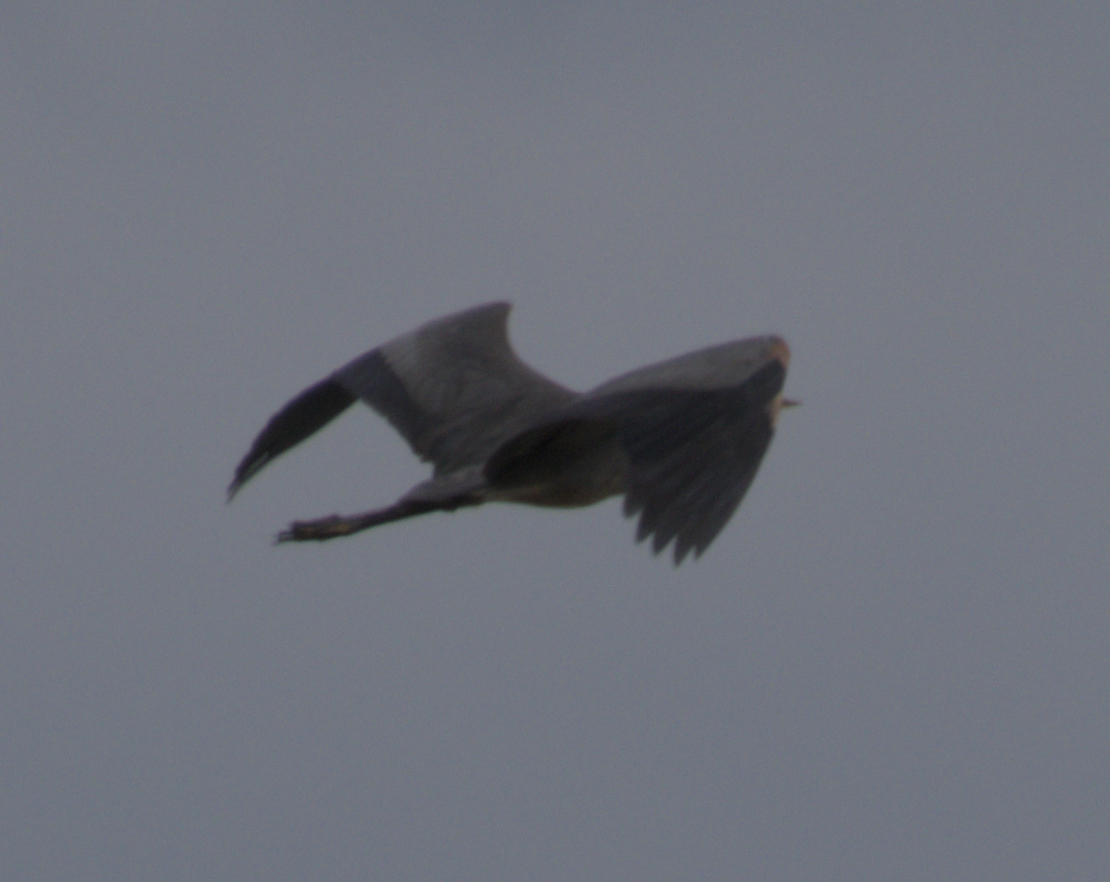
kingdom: Animalia
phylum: Chordata
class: Aves
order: Pelecaniformes
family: Ardeidae
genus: Ardea
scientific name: Ardea herodias
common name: Great blue heron
